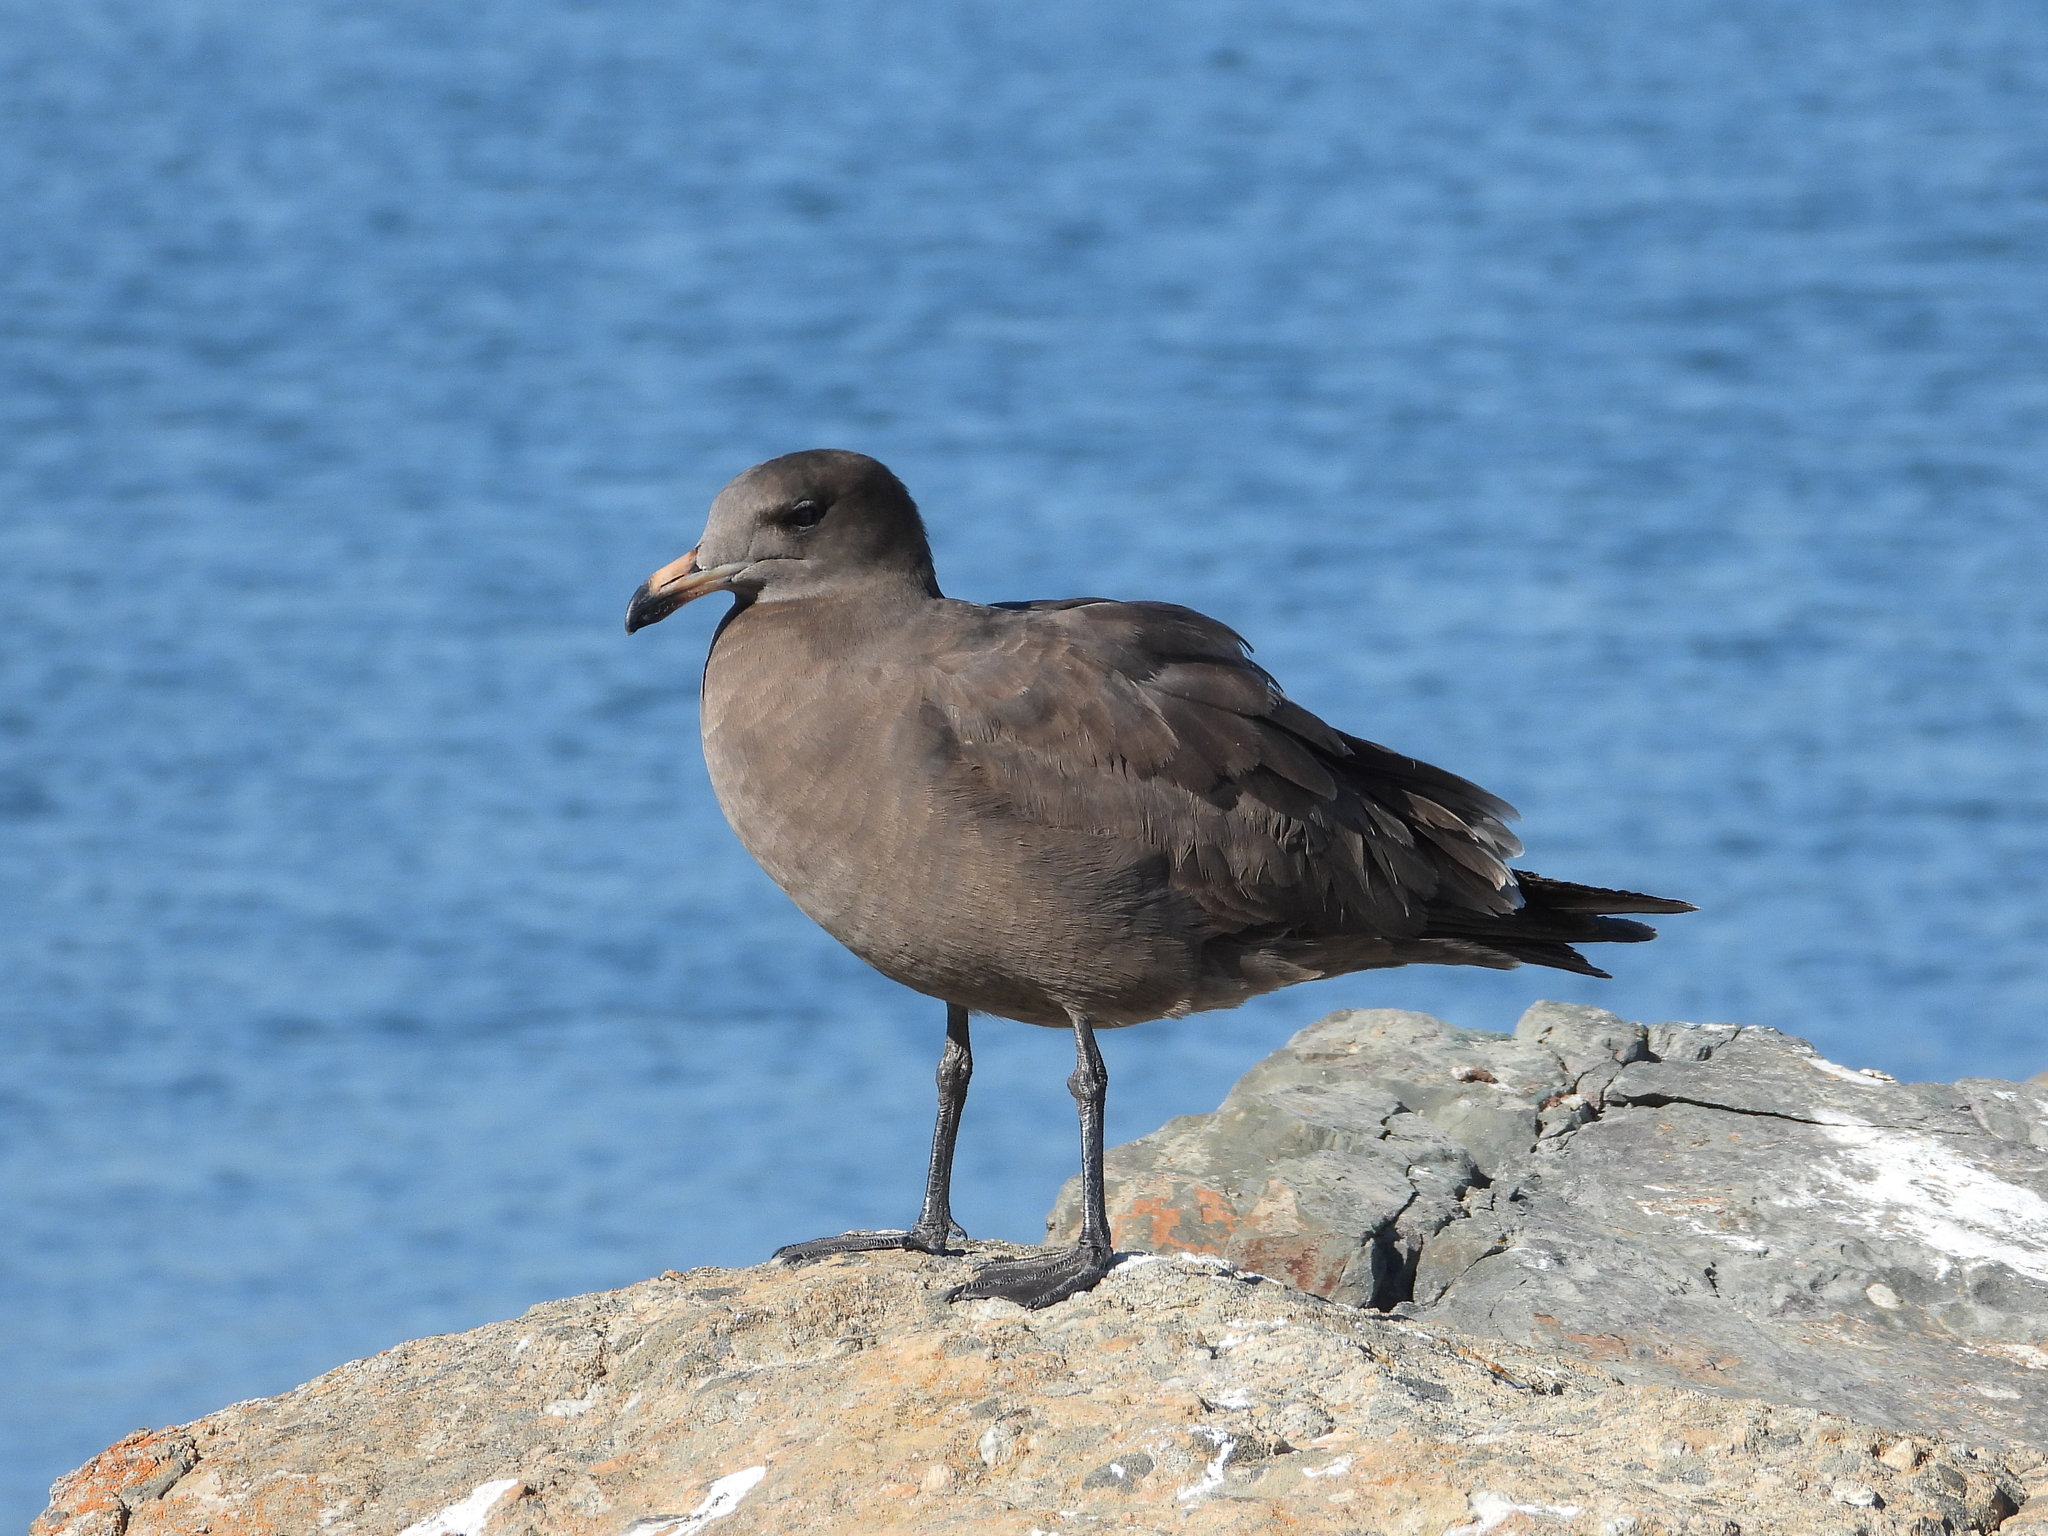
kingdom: Animalia
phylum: Chordata
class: Aves
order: Charadriiformes
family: Laridae
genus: Larus
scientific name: Larus heermanni
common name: Heermann's gull
